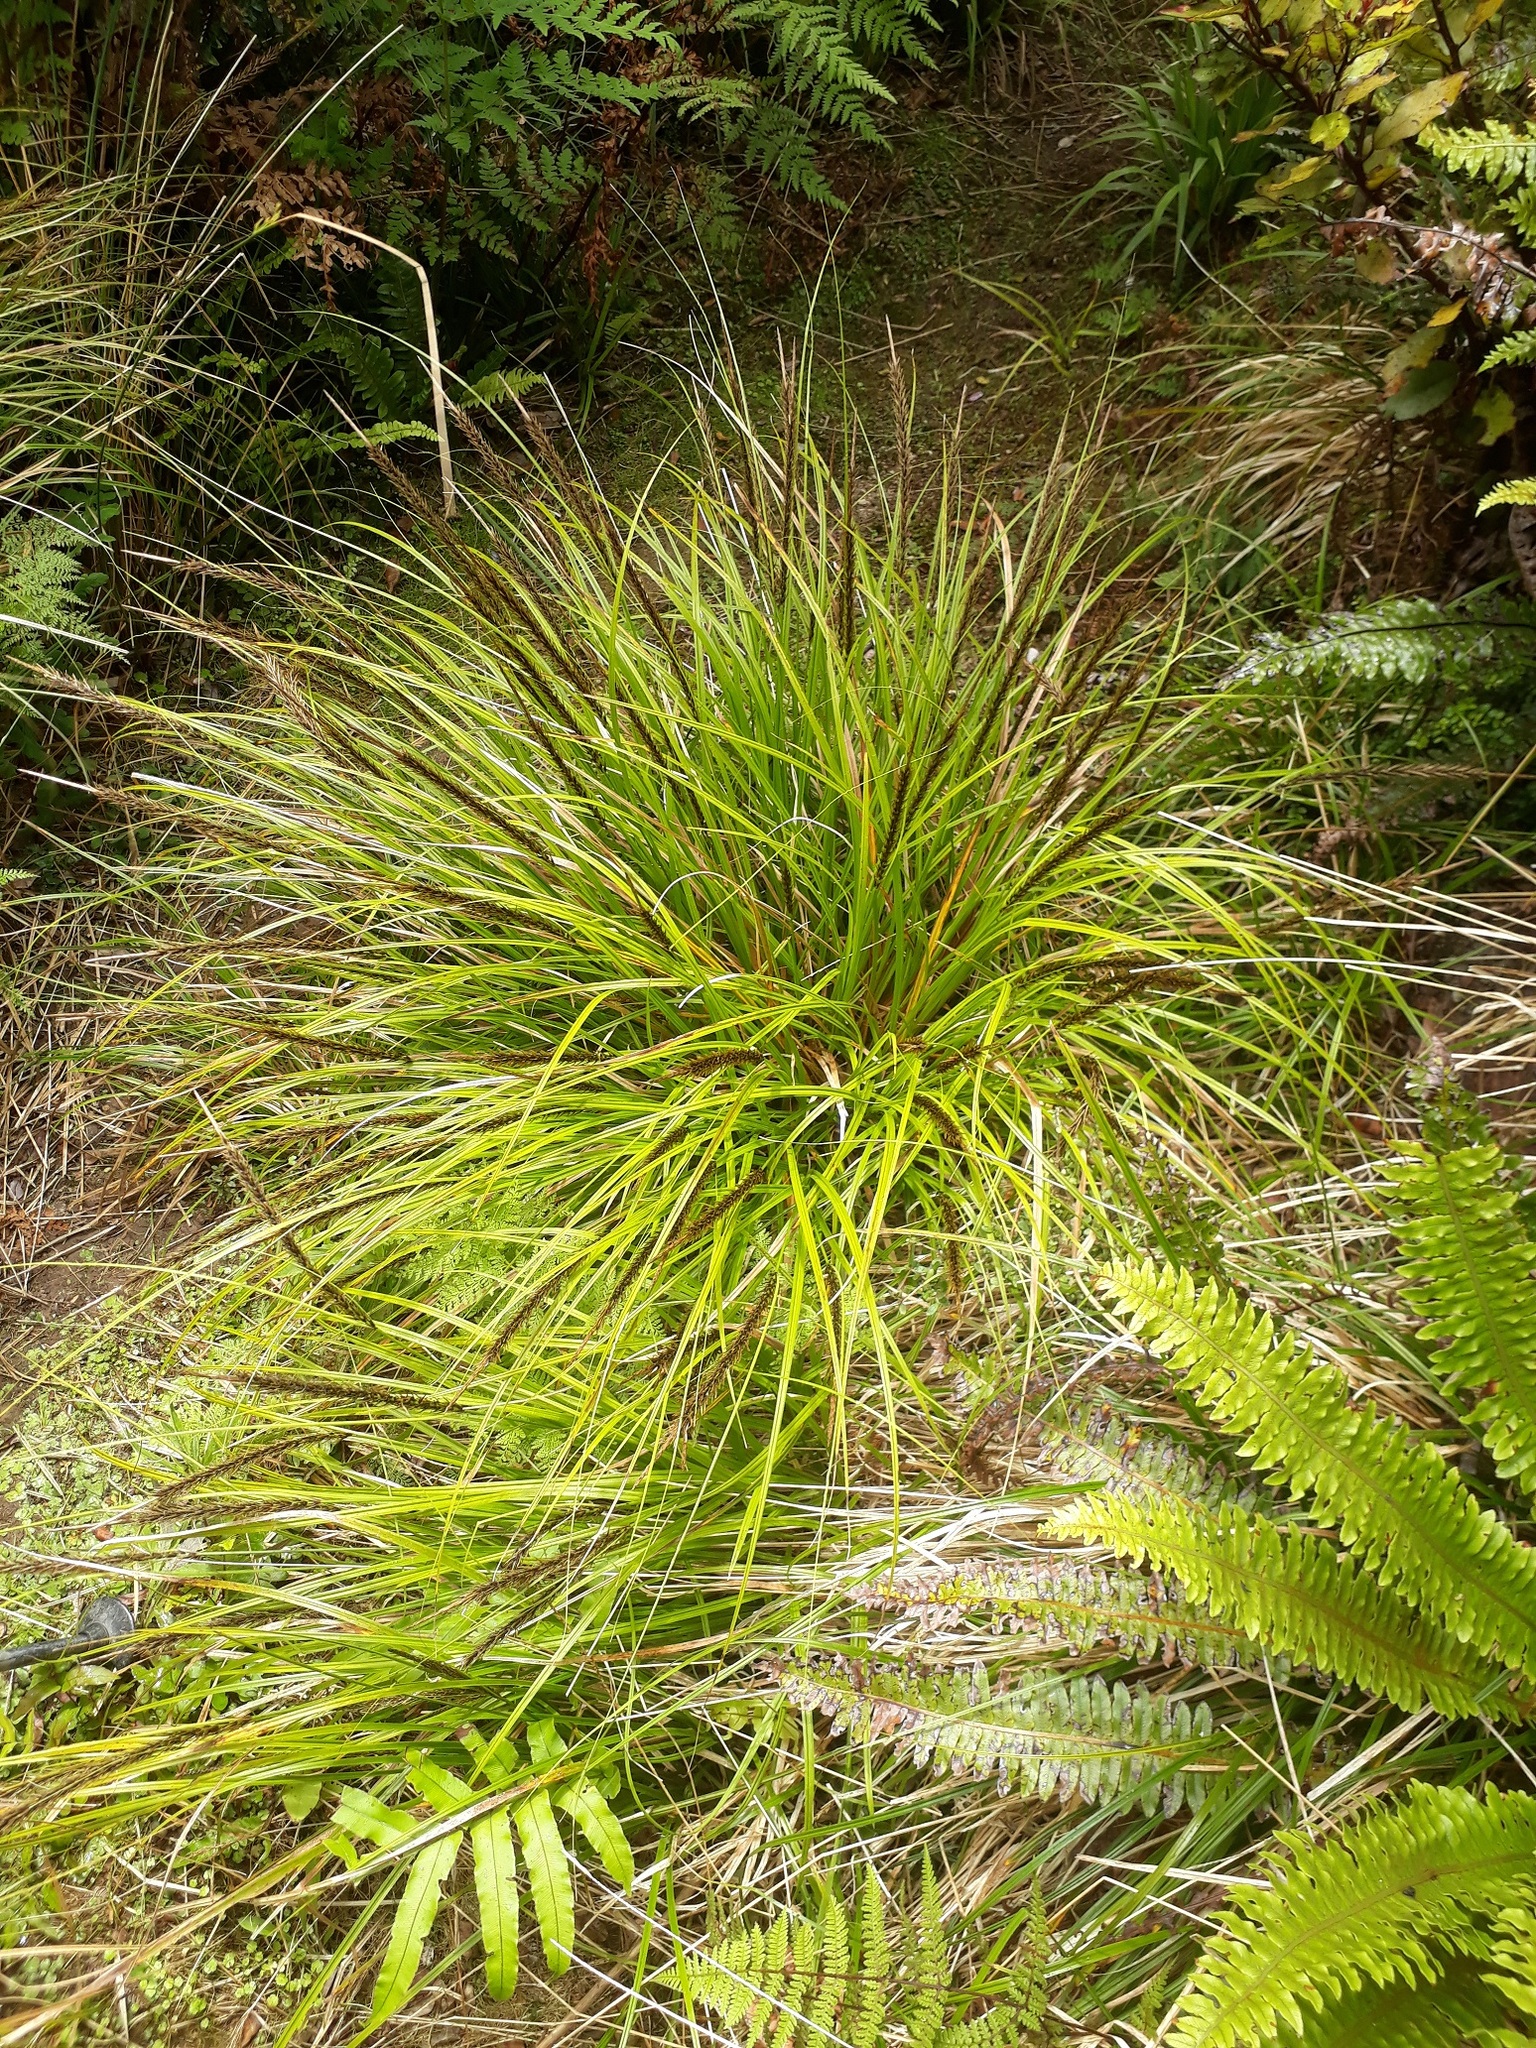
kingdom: Plantae
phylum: Tracheophyta
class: Liliopsida
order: Poales
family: Cyperaceae
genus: Carex
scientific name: Carex uncinata
